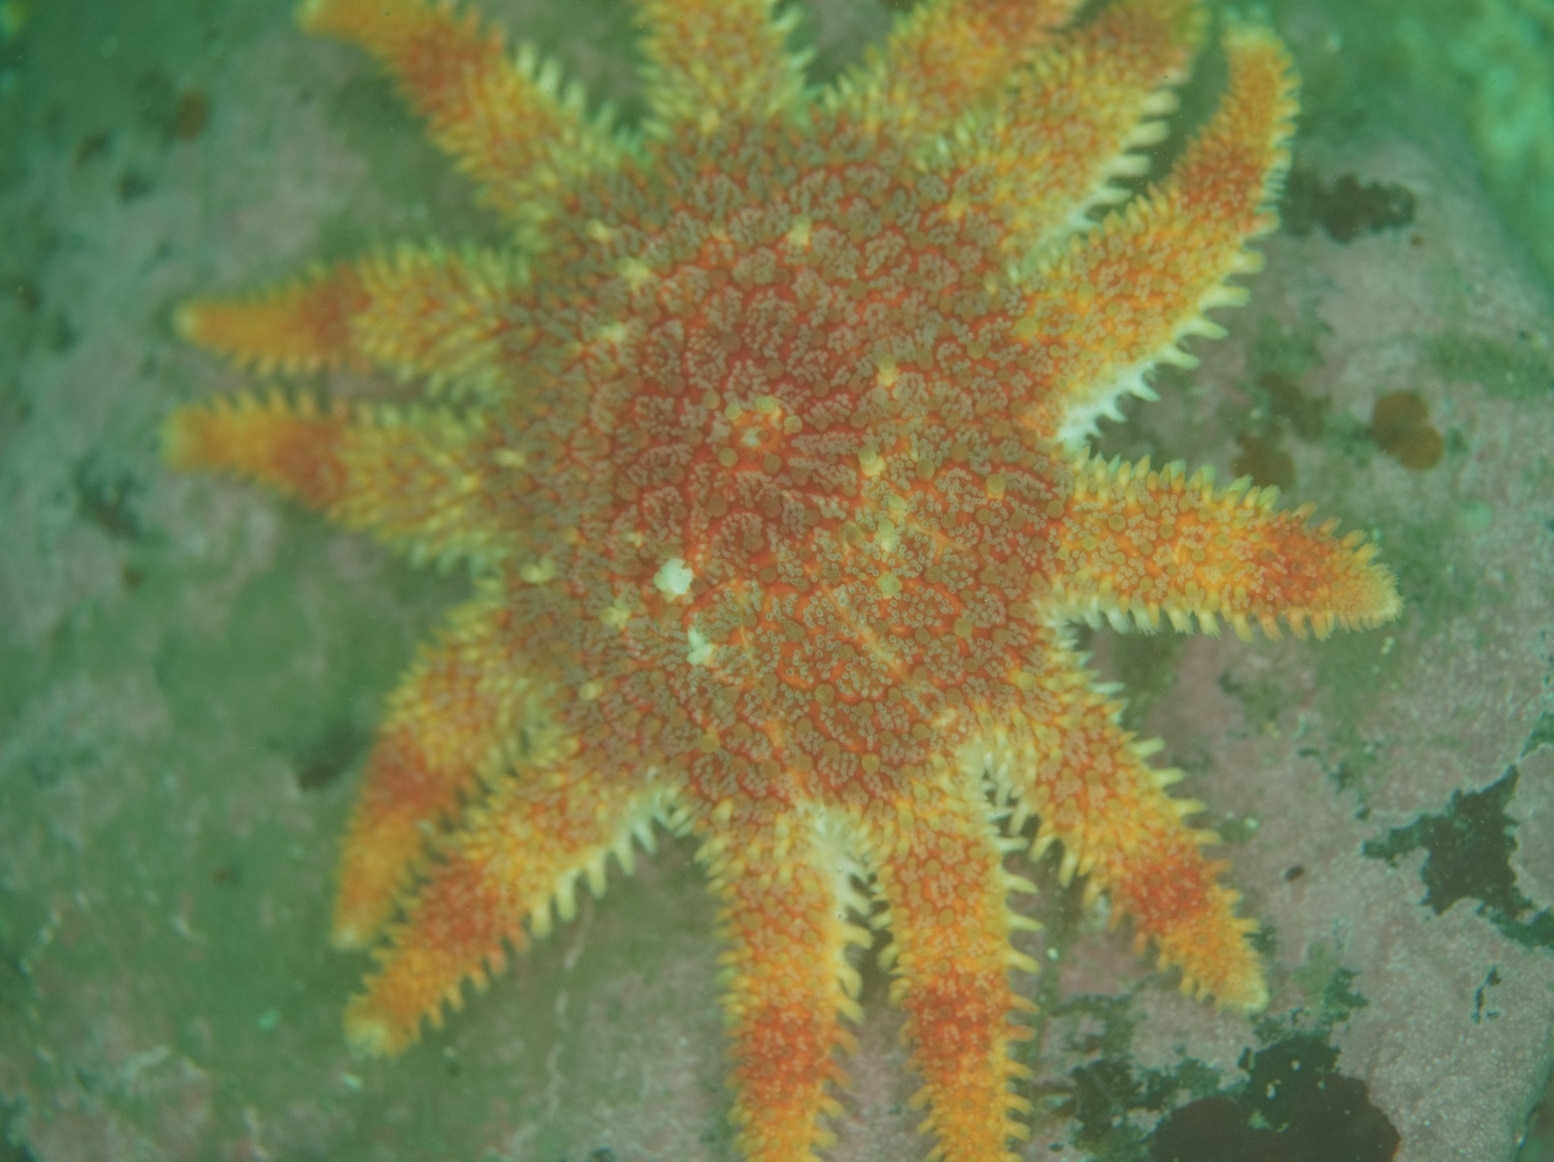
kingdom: Animalia
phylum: Echinodermata
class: Asteroidea
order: Valvatida
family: Solasteridae
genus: Crossaster
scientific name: Crossaster papposus
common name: Common sun star
